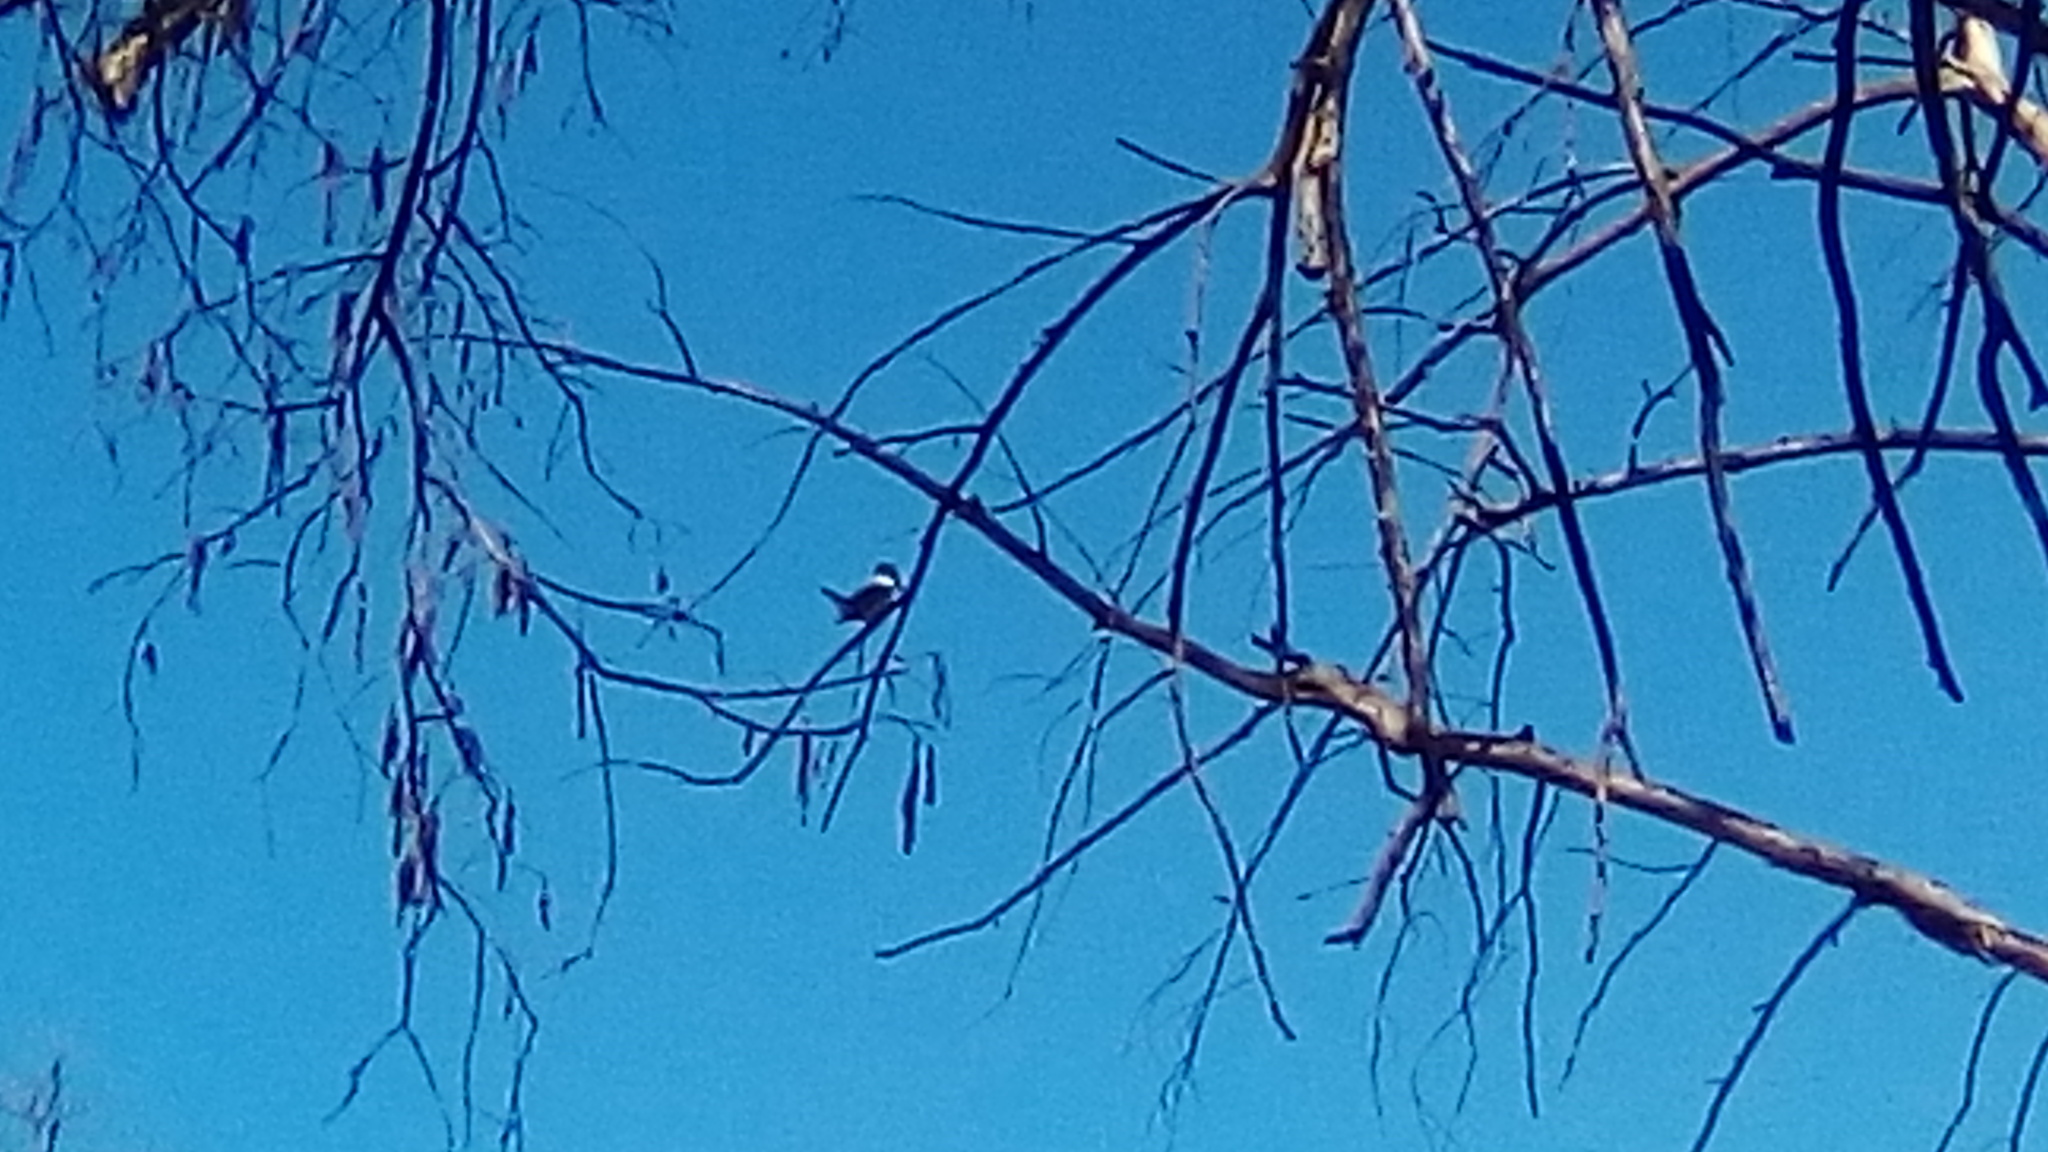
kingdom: Animalia
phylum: Chordata
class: Aves
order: Coraciiformes
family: Alcedinidae
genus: Megaceryle
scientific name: Megaceryle alcyon
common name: Belted kingfisher
